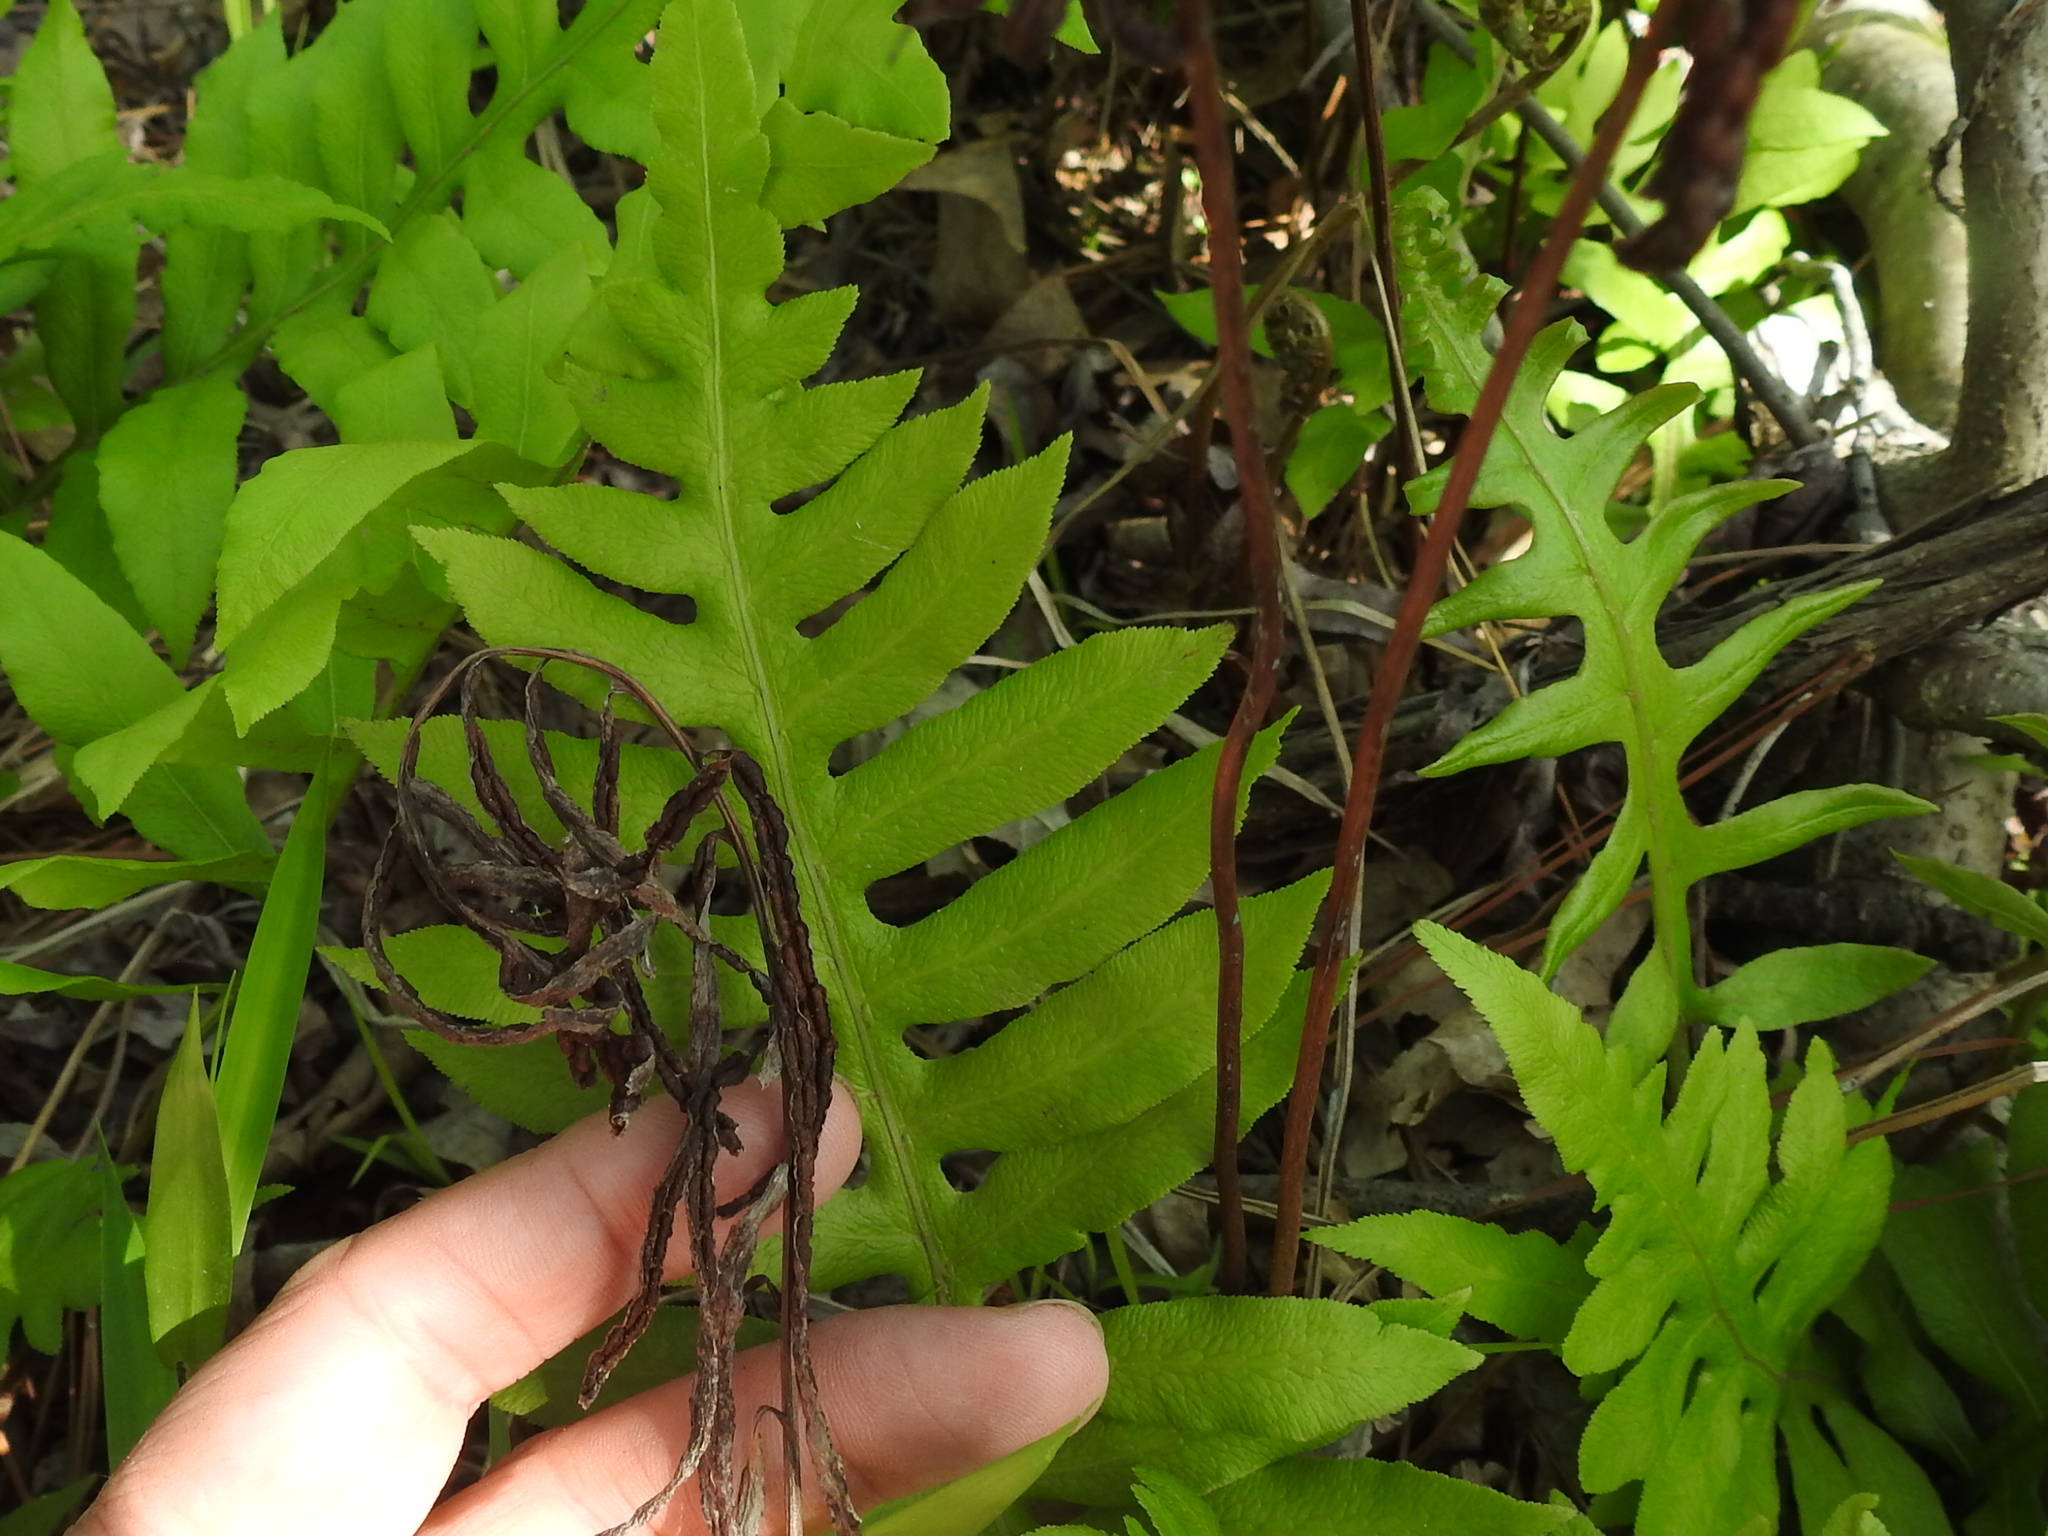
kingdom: Plantae
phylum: Tracheophyta
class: Polypodiopsida
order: Polypodiales
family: Blechnaceae
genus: Lorinseria
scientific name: Lorinseria areolata
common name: Dwarf chain fern
